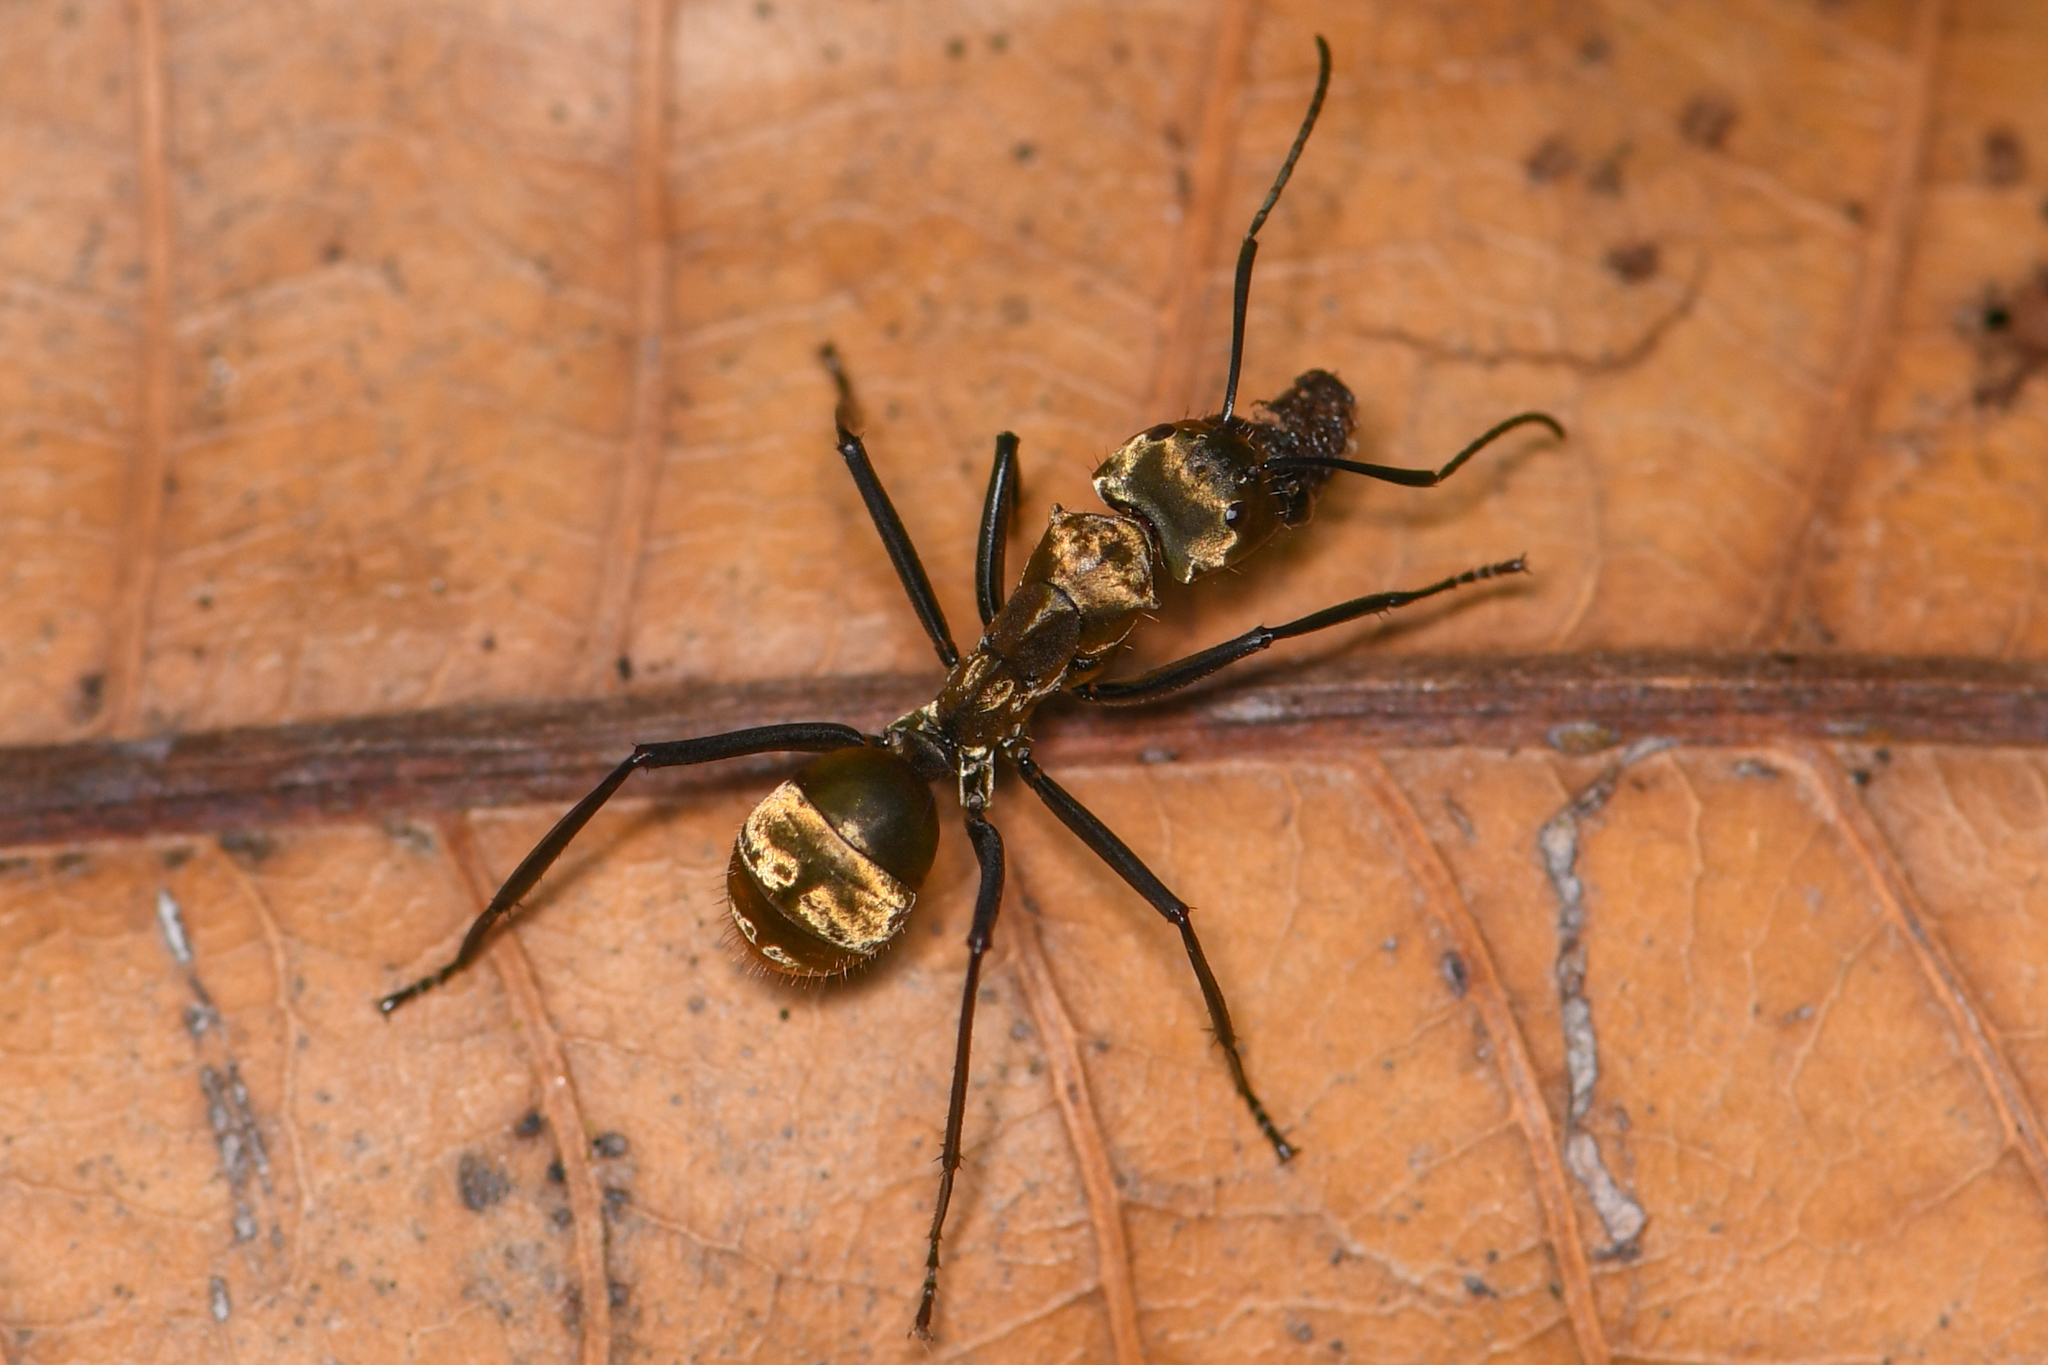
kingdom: Animalia
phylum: Arthropoda
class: Insecta
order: Hymenoptera
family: Formicidae
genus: Camponotus
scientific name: Camponotus sericeiventris
